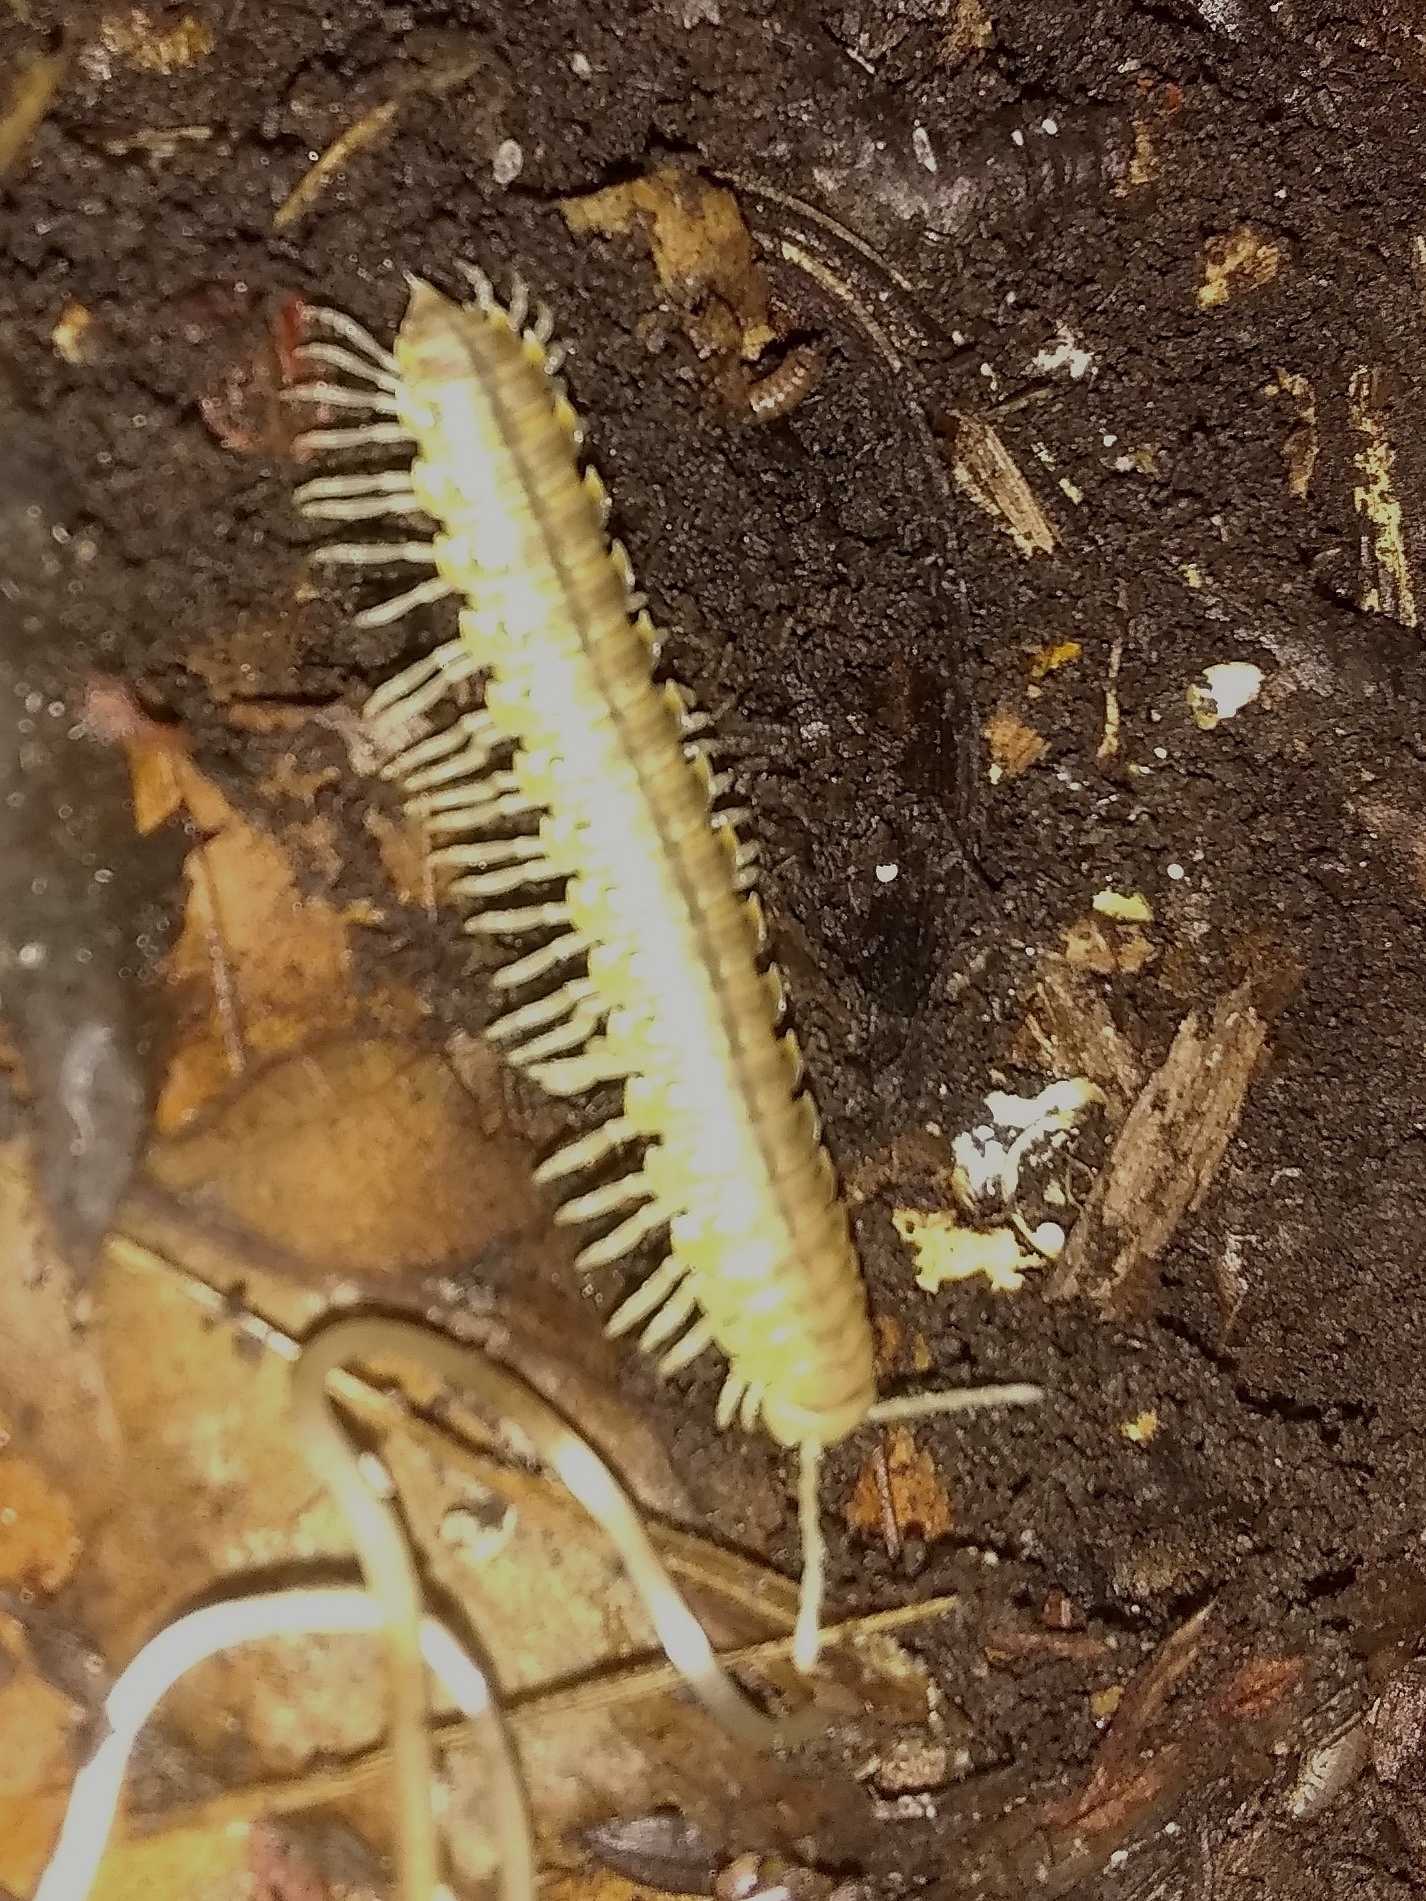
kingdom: Animalia
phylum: Arthropoda
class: Diplopoda
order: Polydesmida
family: Xystodesmidae
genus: Xystocheir
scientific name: Xystocheir dissecta
